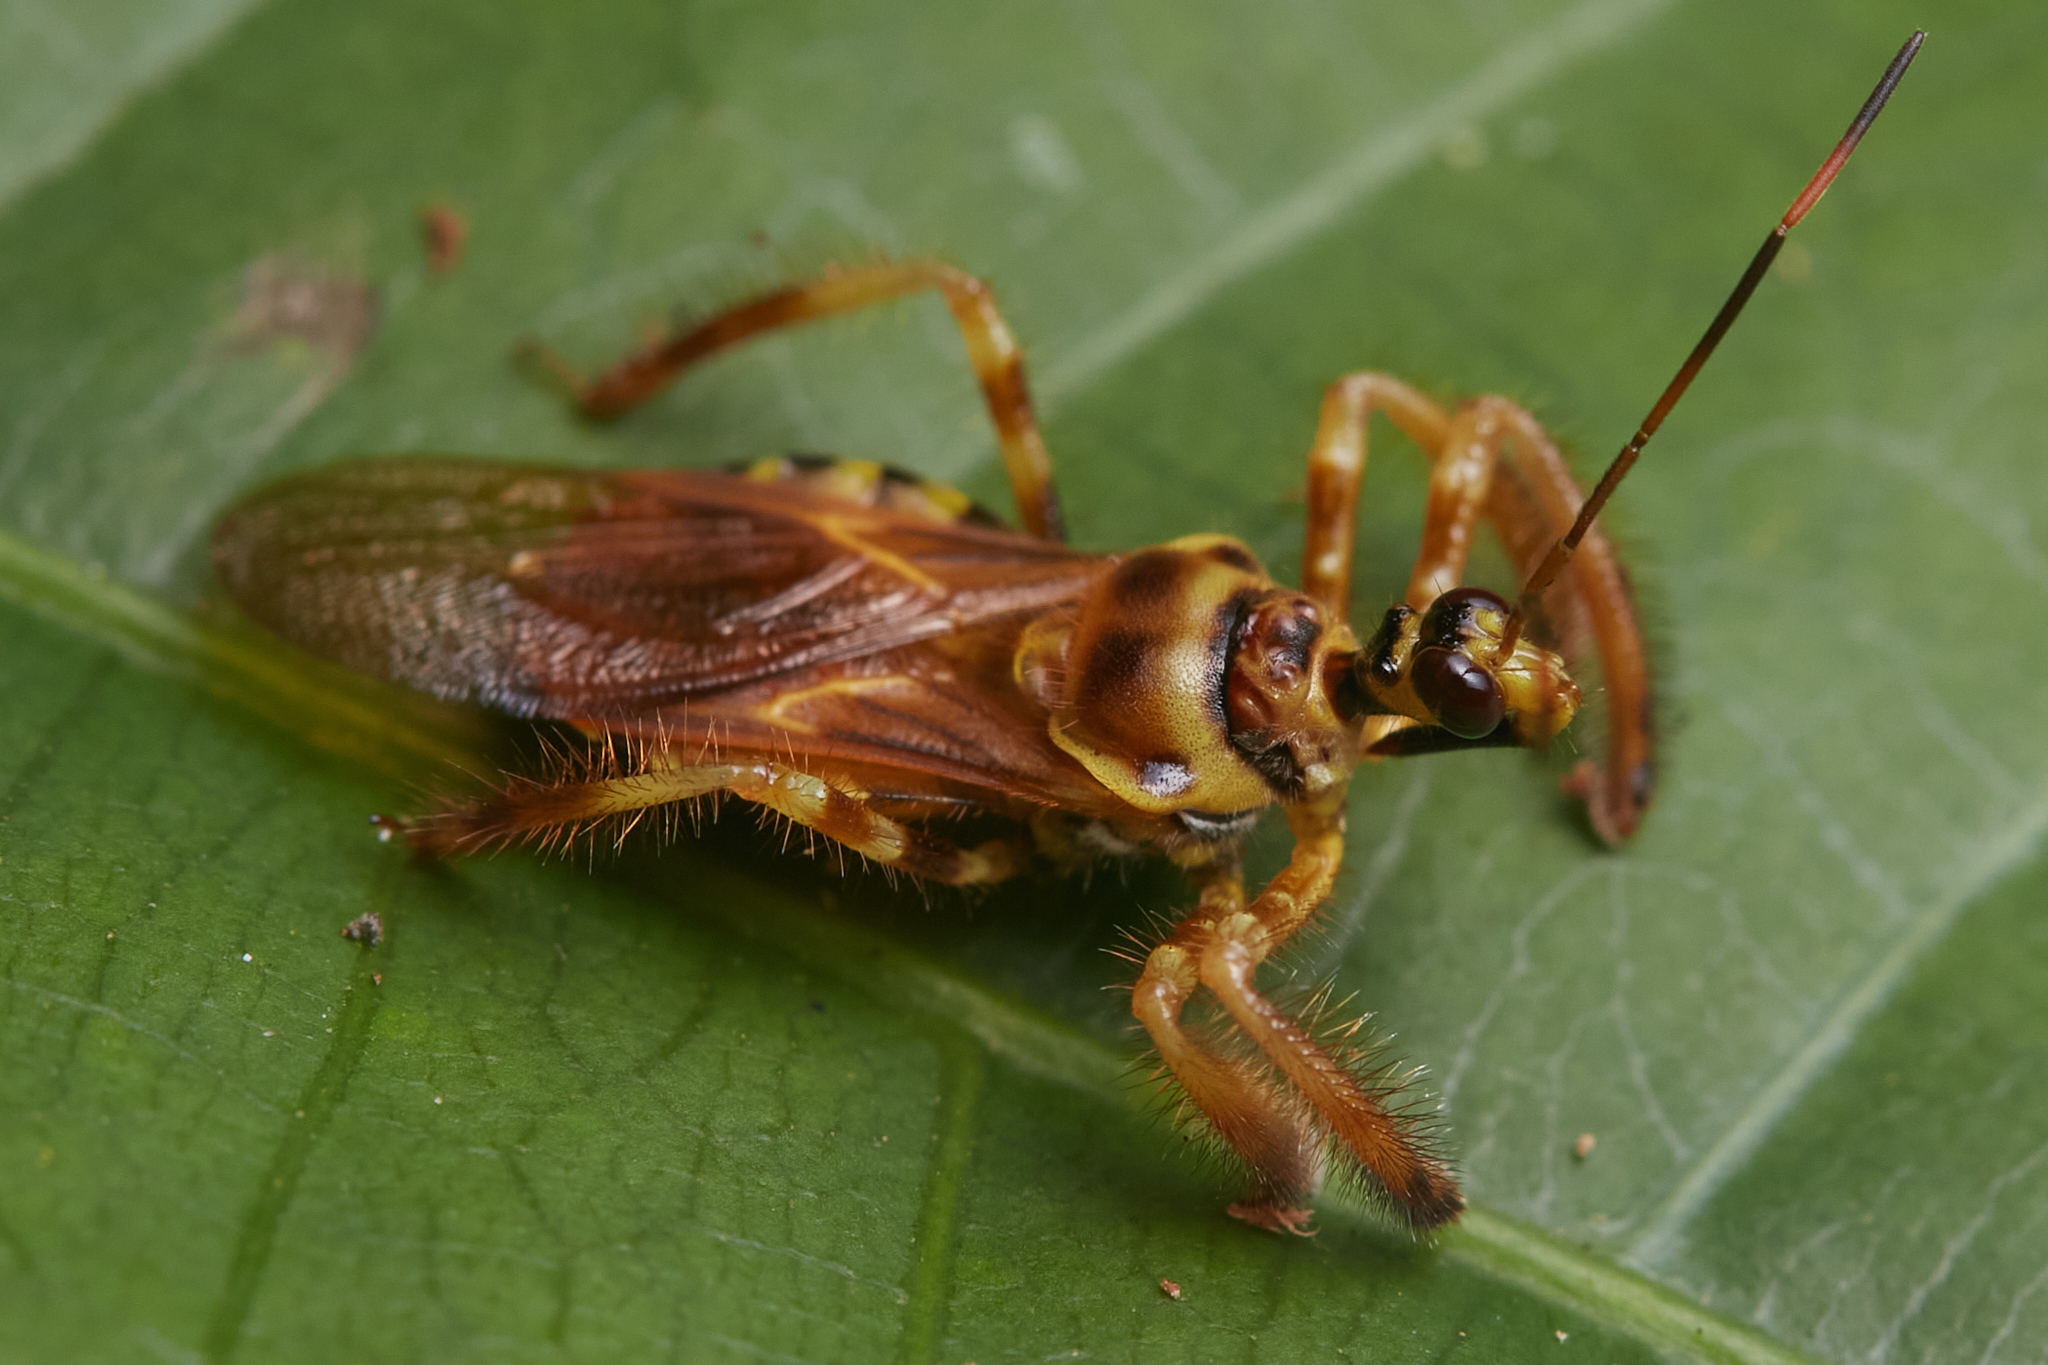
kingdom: Animalia
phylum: Arthropoda
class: Insecta
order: Hemiptera
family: Reduviidae
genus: Agriocoris
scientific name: Agriocoris flavipes
